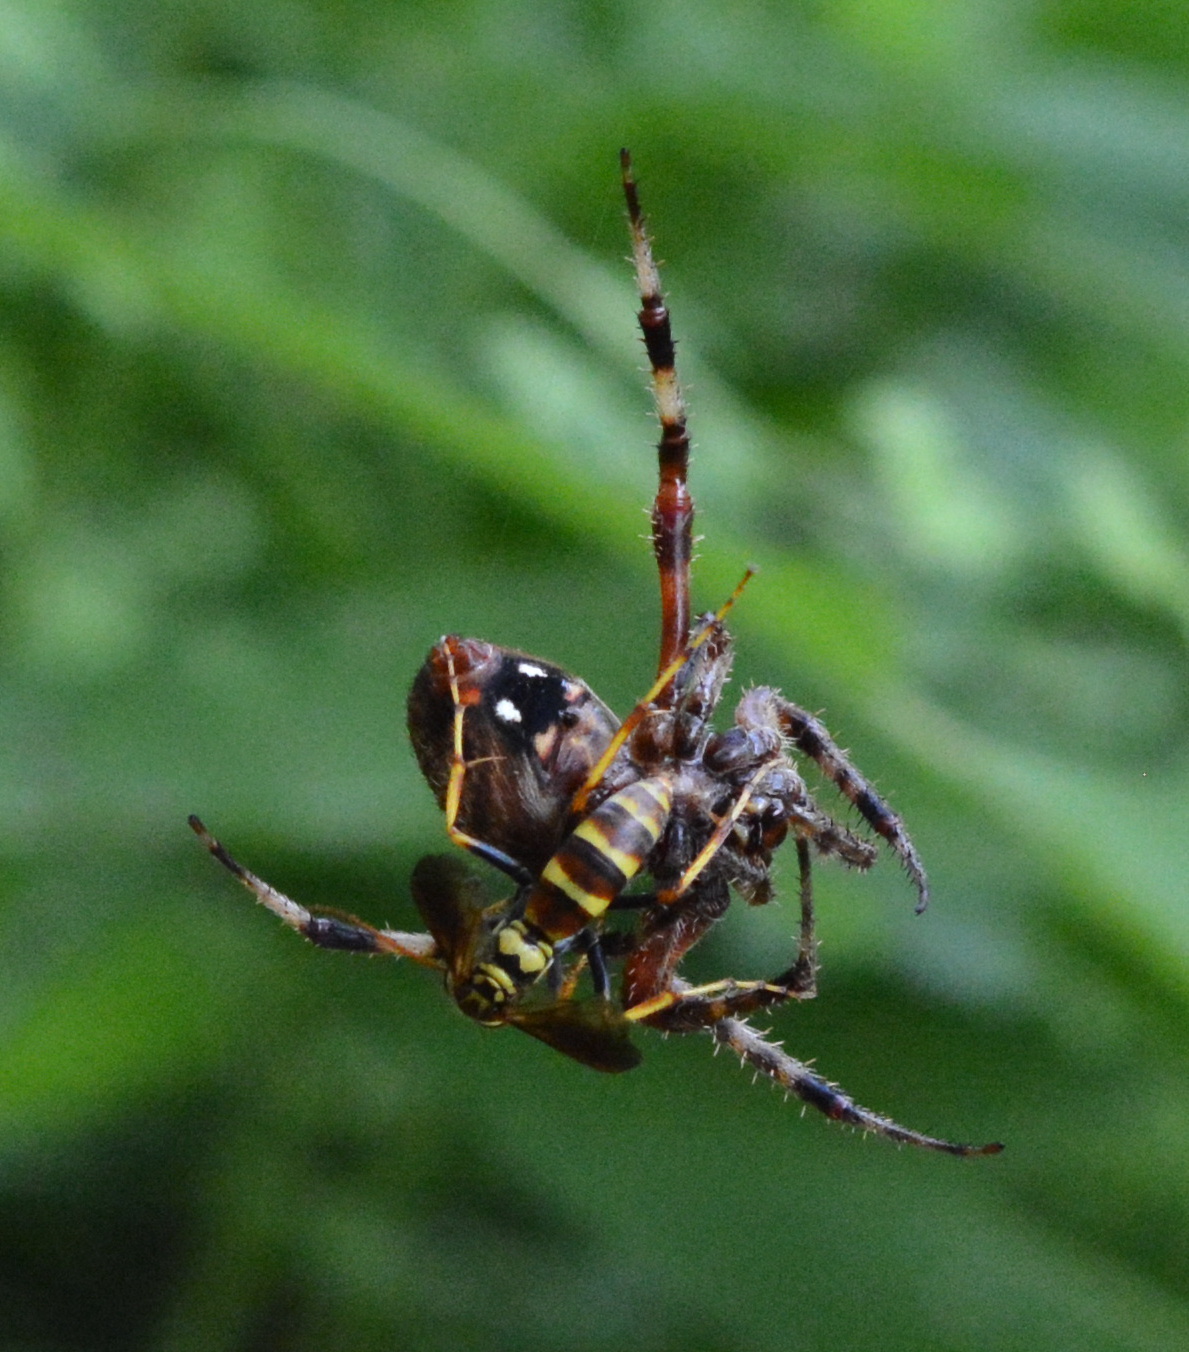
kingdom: Animalia
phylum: Arthropoda
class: Insecta
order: Hymenoptera
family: Pompilidae
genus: Poecilopompilus
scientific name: Poecilopompilus interruptus
